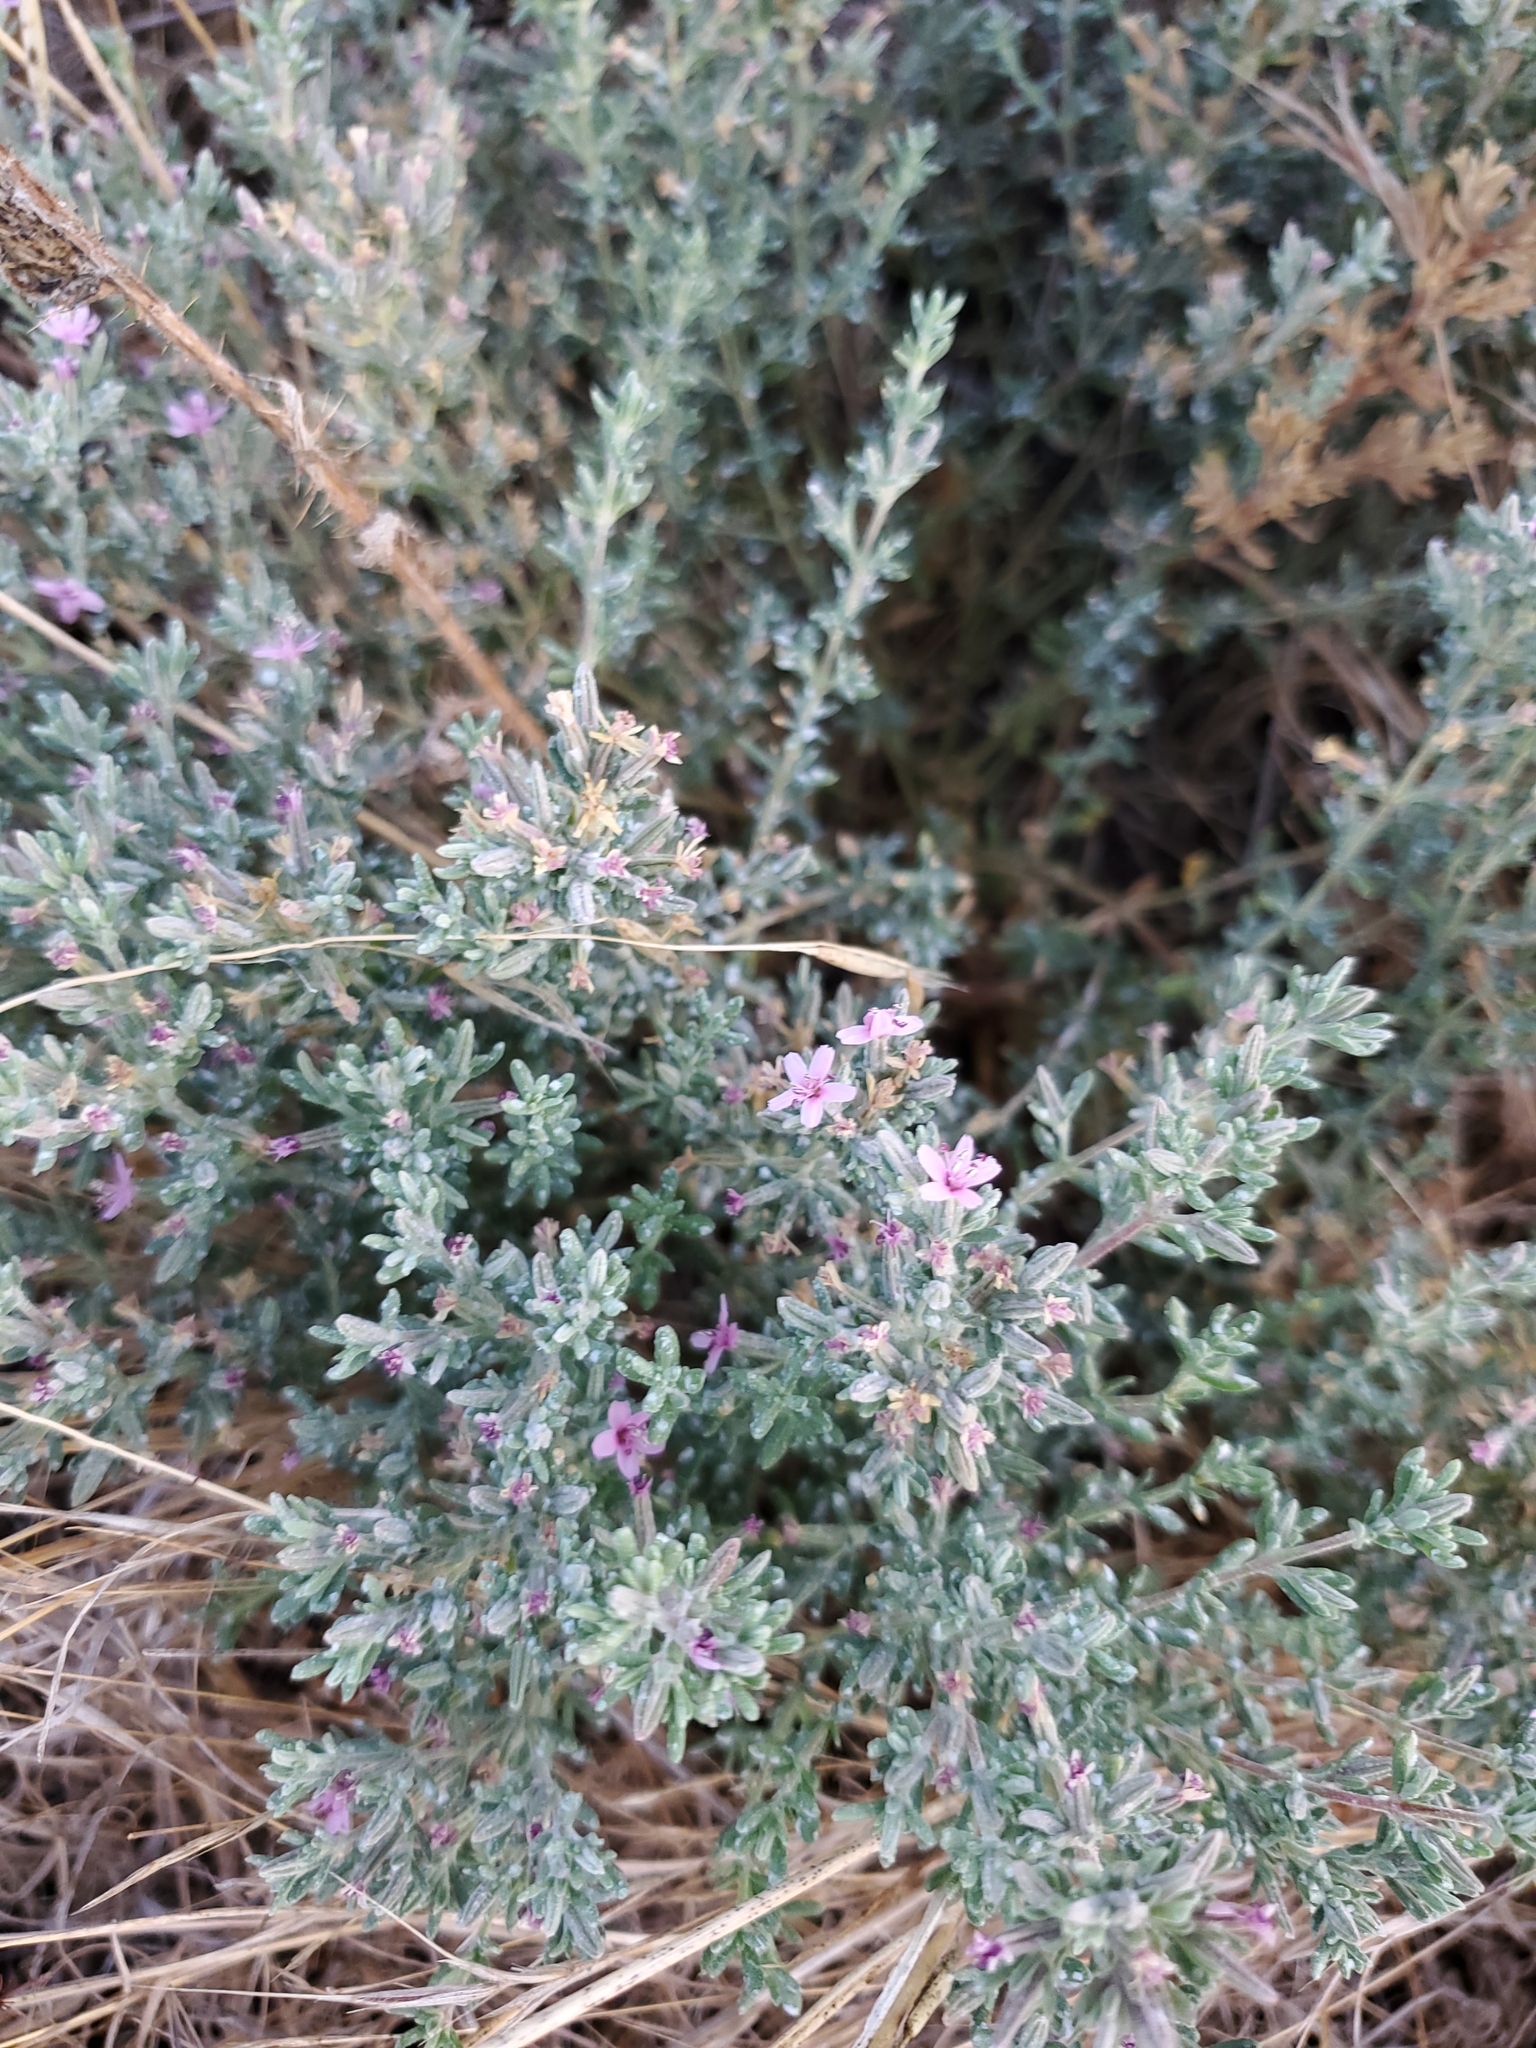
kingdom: Plantae
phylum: Tracheophyta
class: Magnoliopsida
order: Caryophyllales
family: Frankeniaceae
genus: Frankenia
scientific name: Frankenia salina
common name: Alkali seaheath
